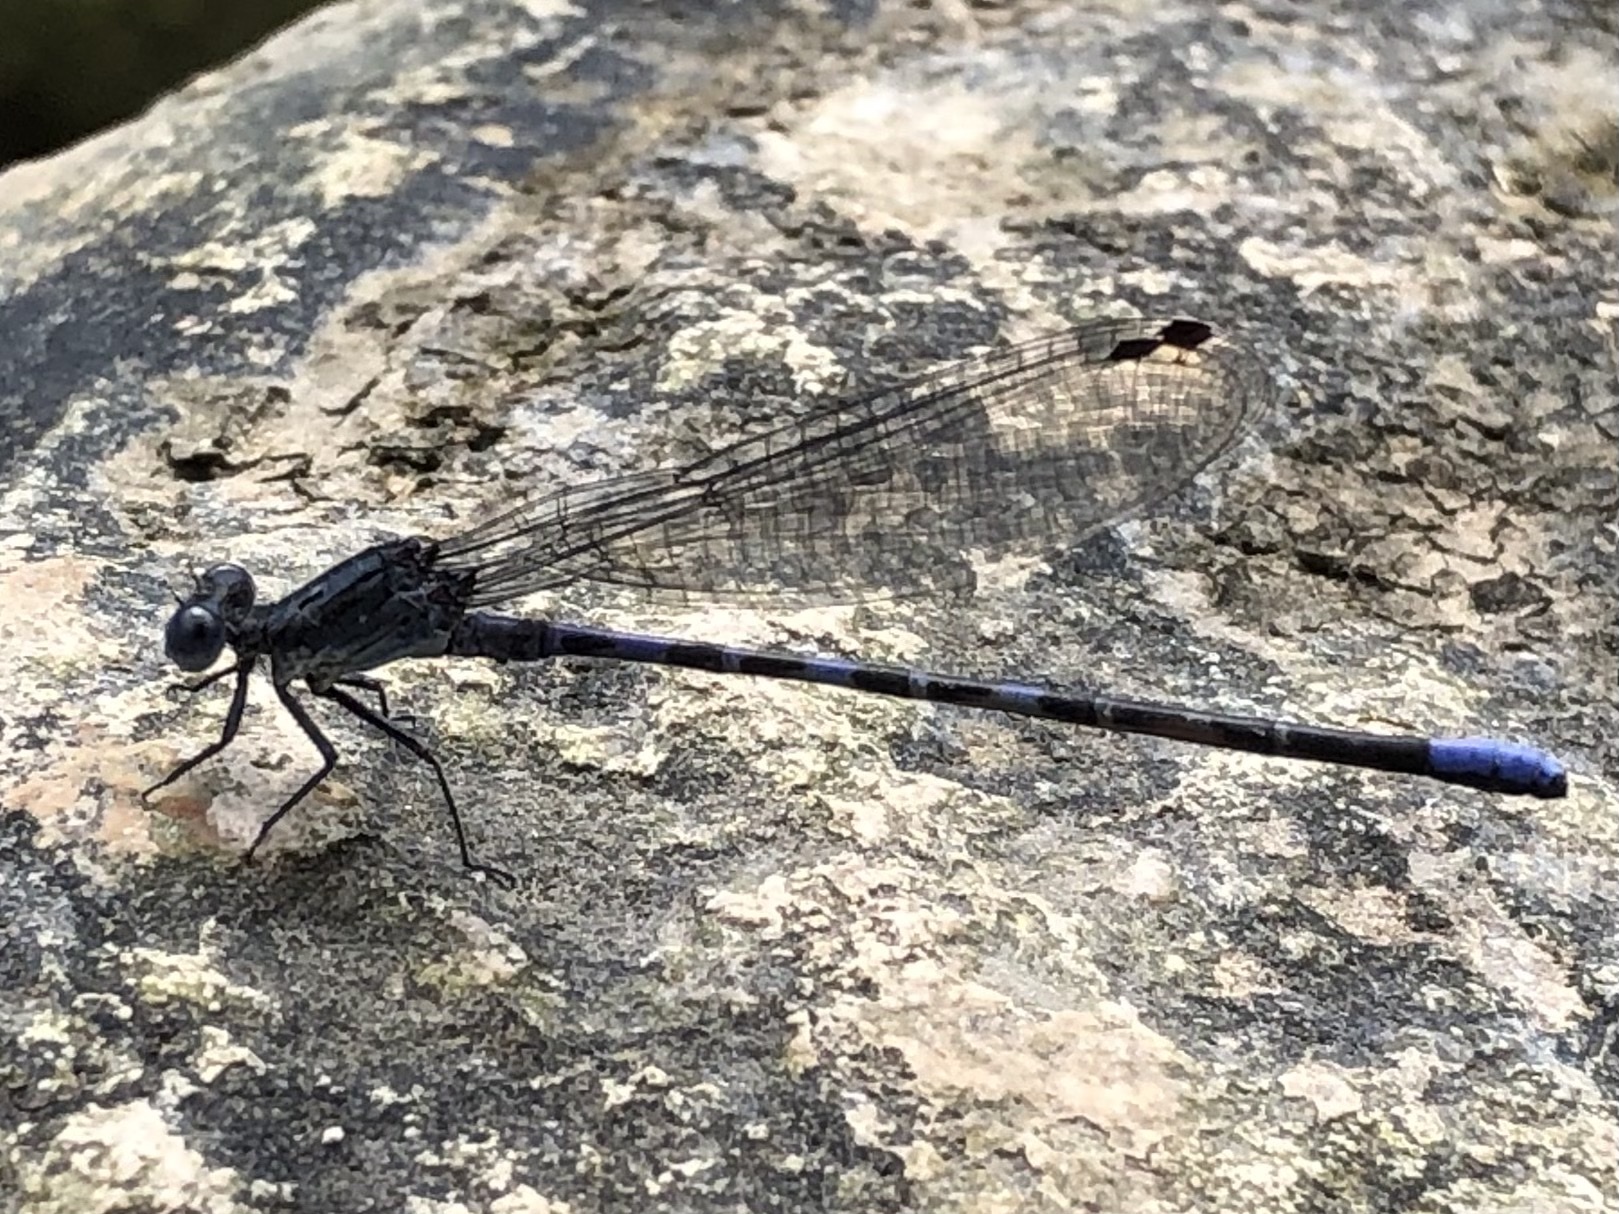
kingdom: Animalia
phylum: Arthropoda
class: Insecta
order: Odonata
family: Coenagrionidae
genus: Argia
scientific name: Argia immunda
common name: Kiowa dancer
